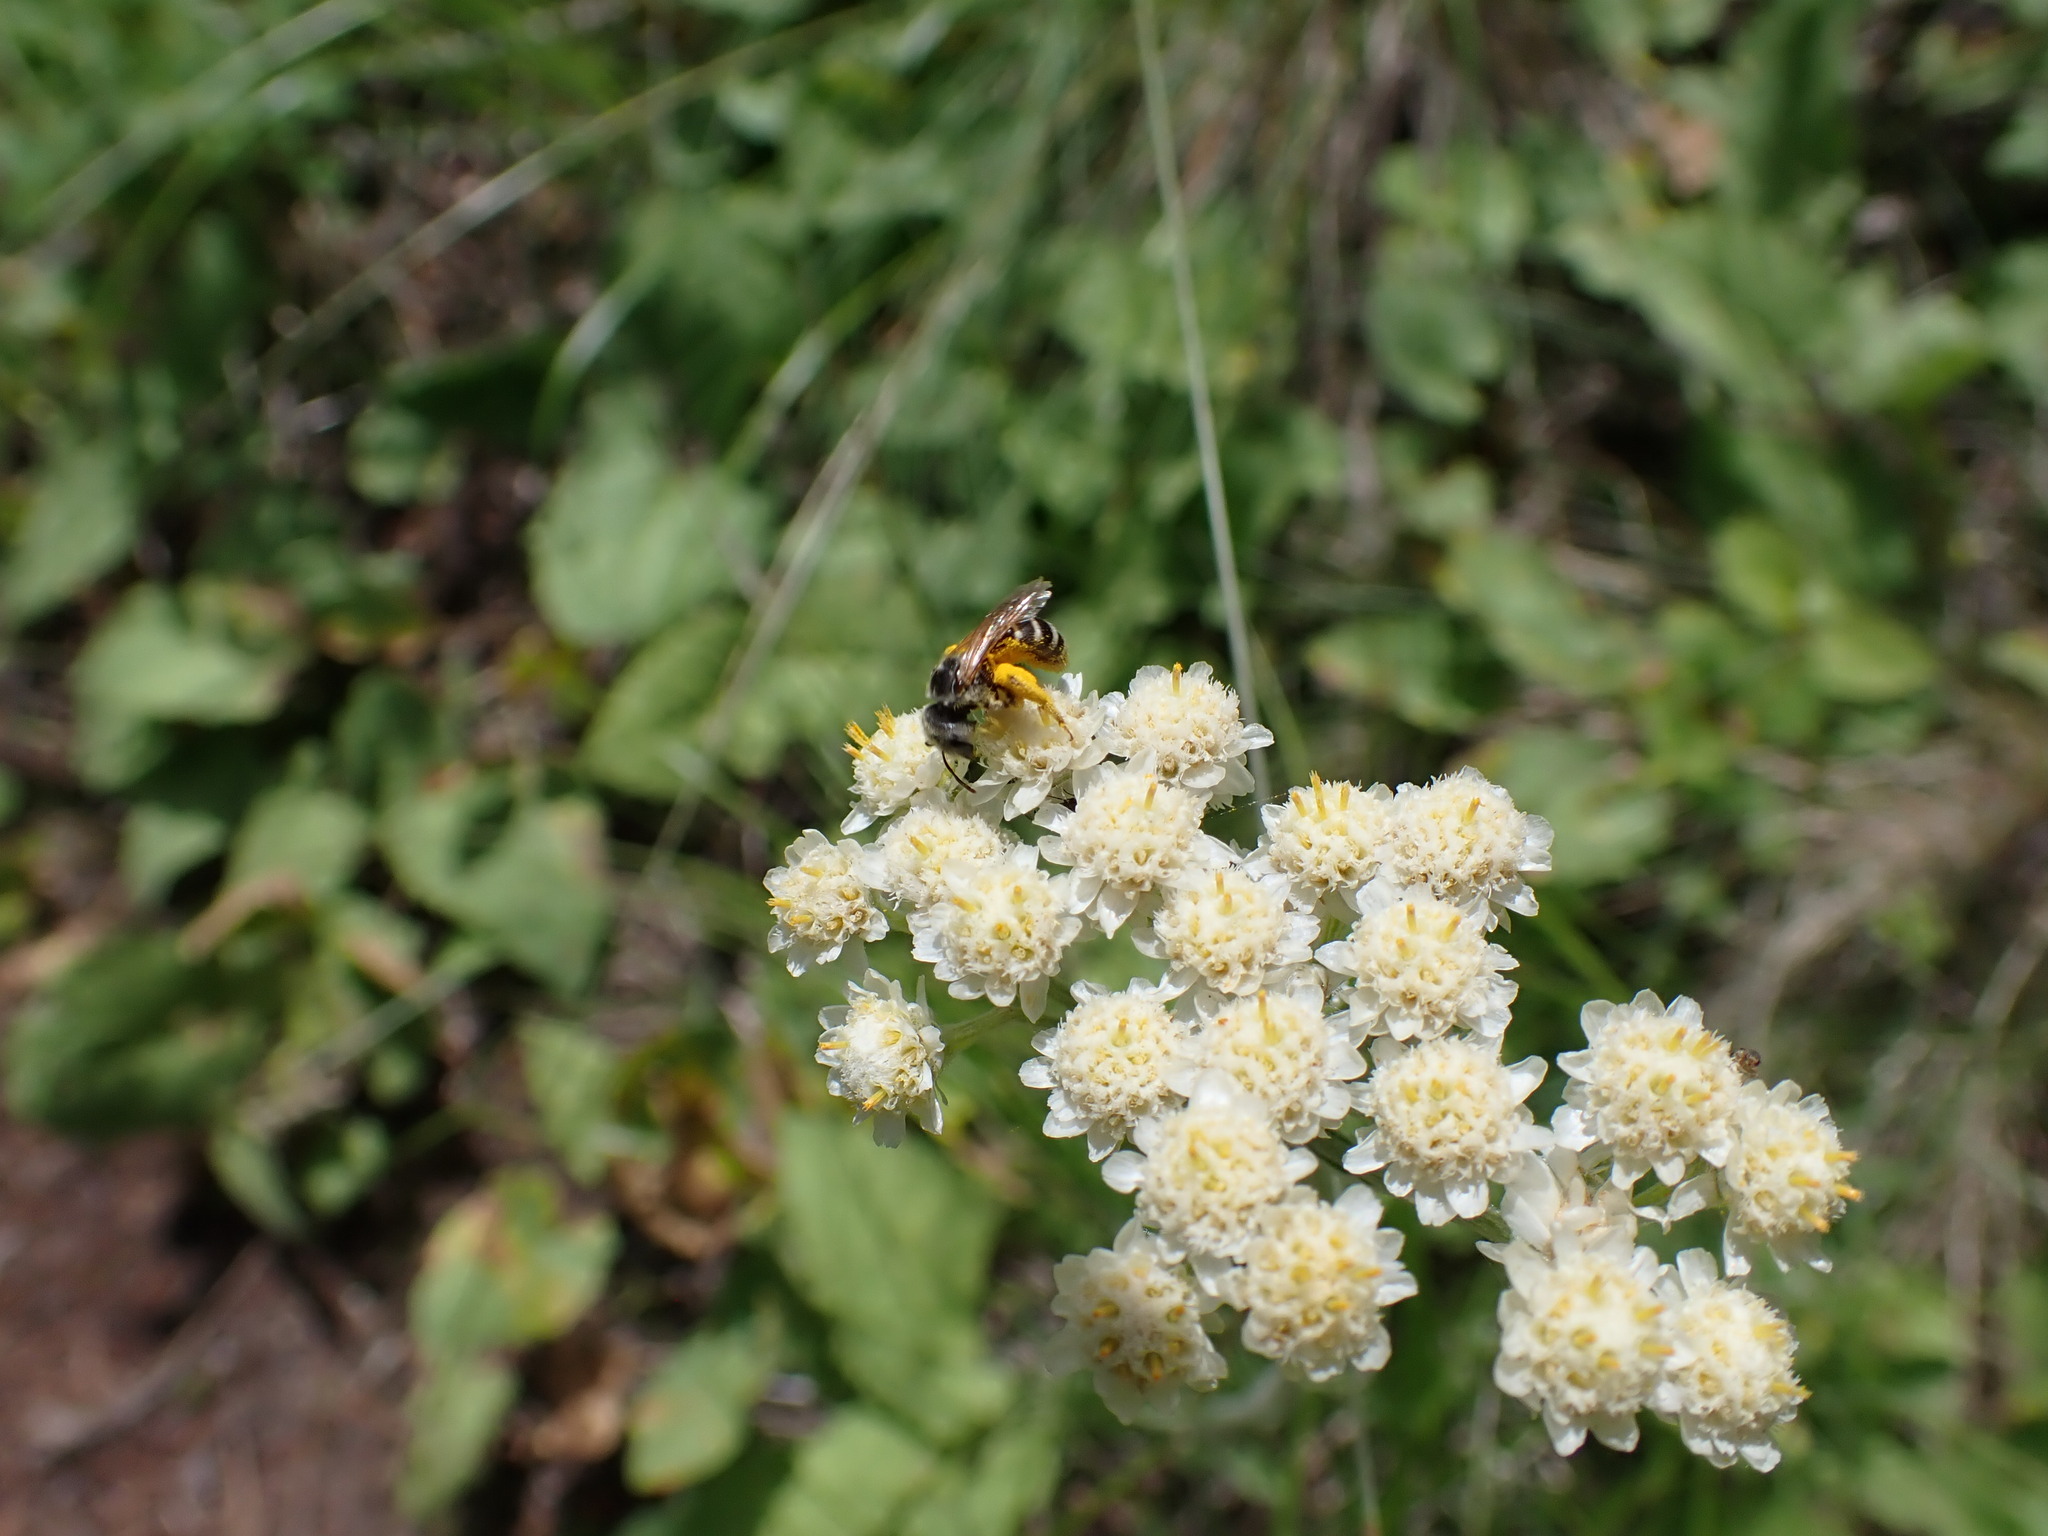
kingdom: Animalia
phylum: Arthropoda
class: Insecta
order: Hymenoptera
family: Halictidae
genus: Halictus
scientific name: Halictus ligatus
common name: Ligated furrow bee
